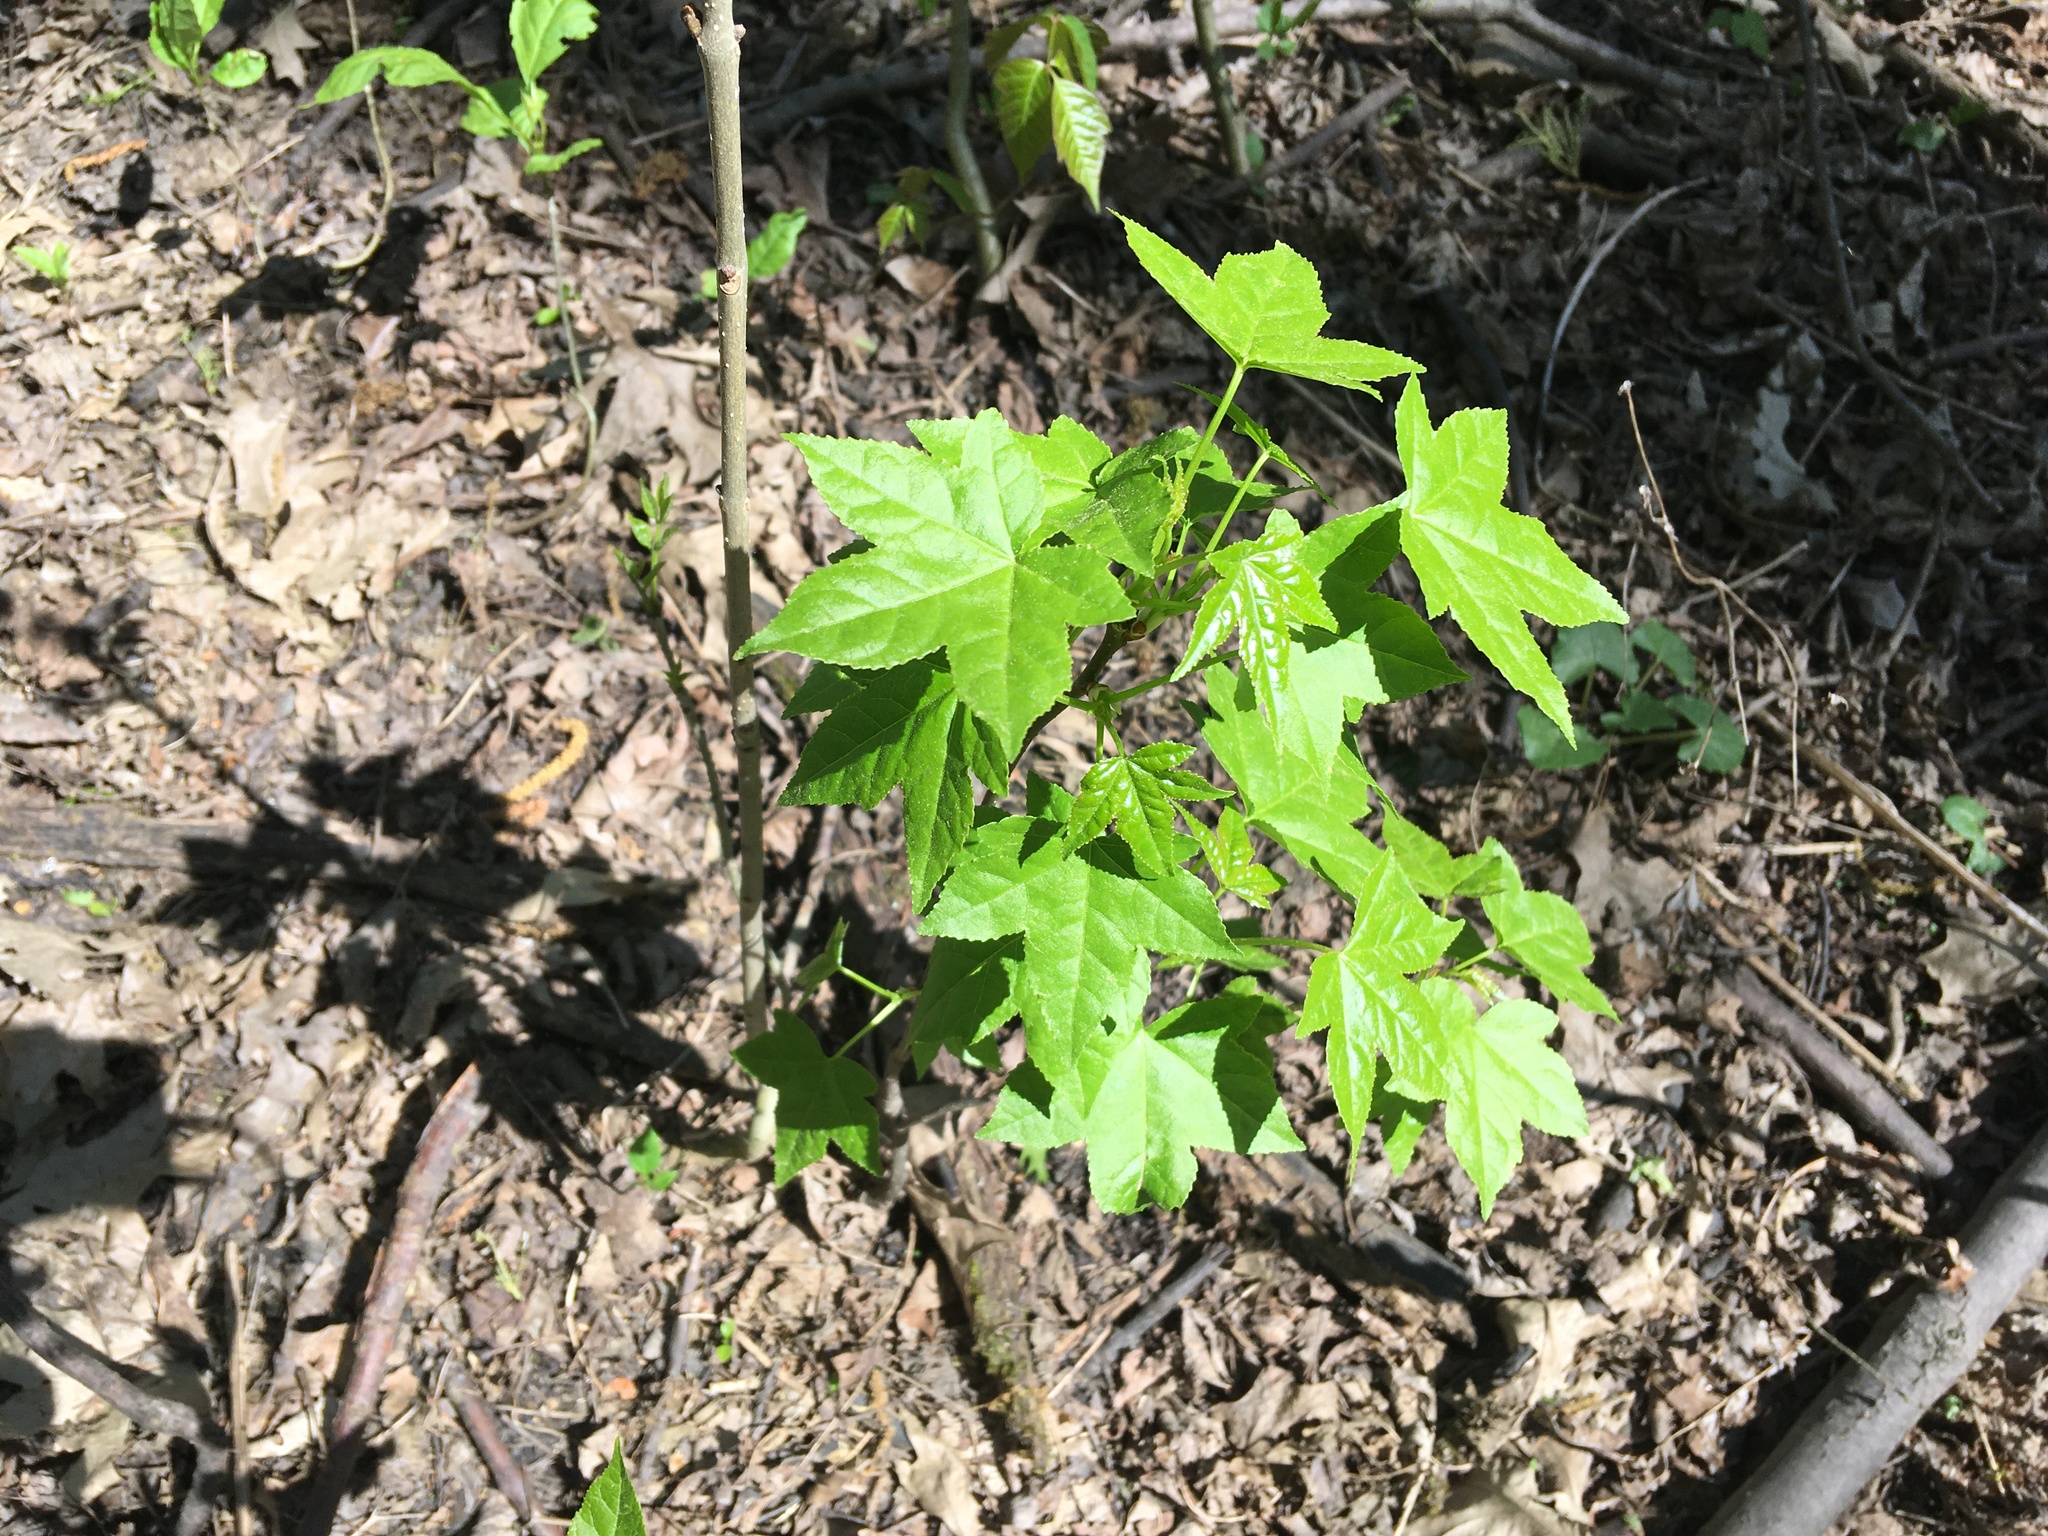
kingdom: Plantae
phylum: Tracheophyta
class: Magnoliopsida
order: Saxifragales
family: Altingiaceae
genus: Liquidambar
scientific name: Liquidambar styraciflua
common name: Sweet gum
